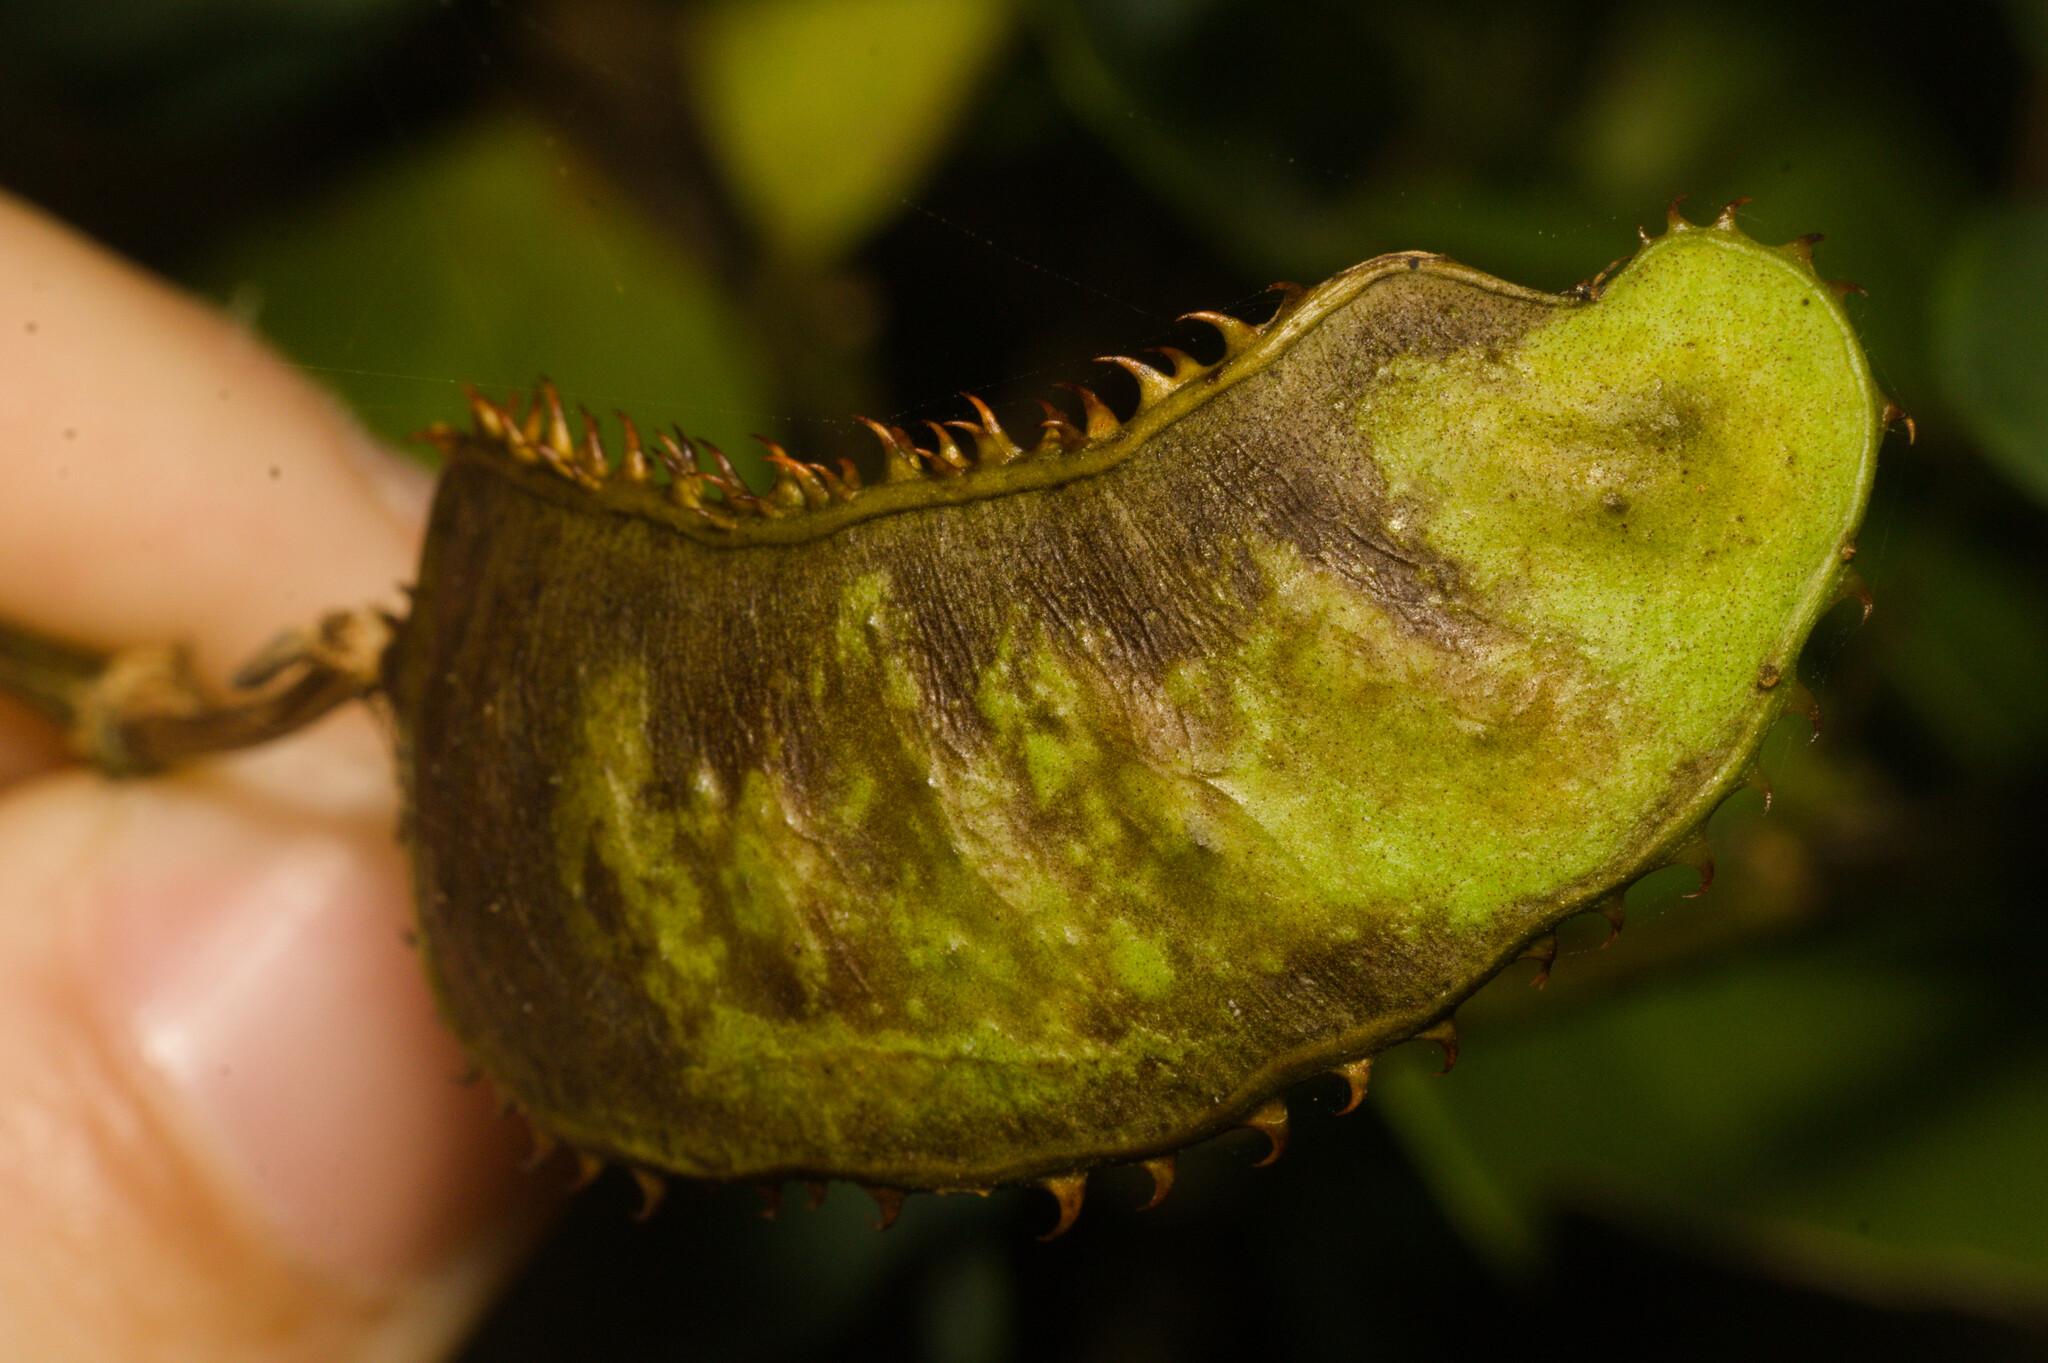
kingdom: Plantae
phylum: Tracheophyta
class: Magnoliopsida
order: Fabales
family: Fabaceae
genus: Mimosa
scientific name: Mimosa ceratonia
